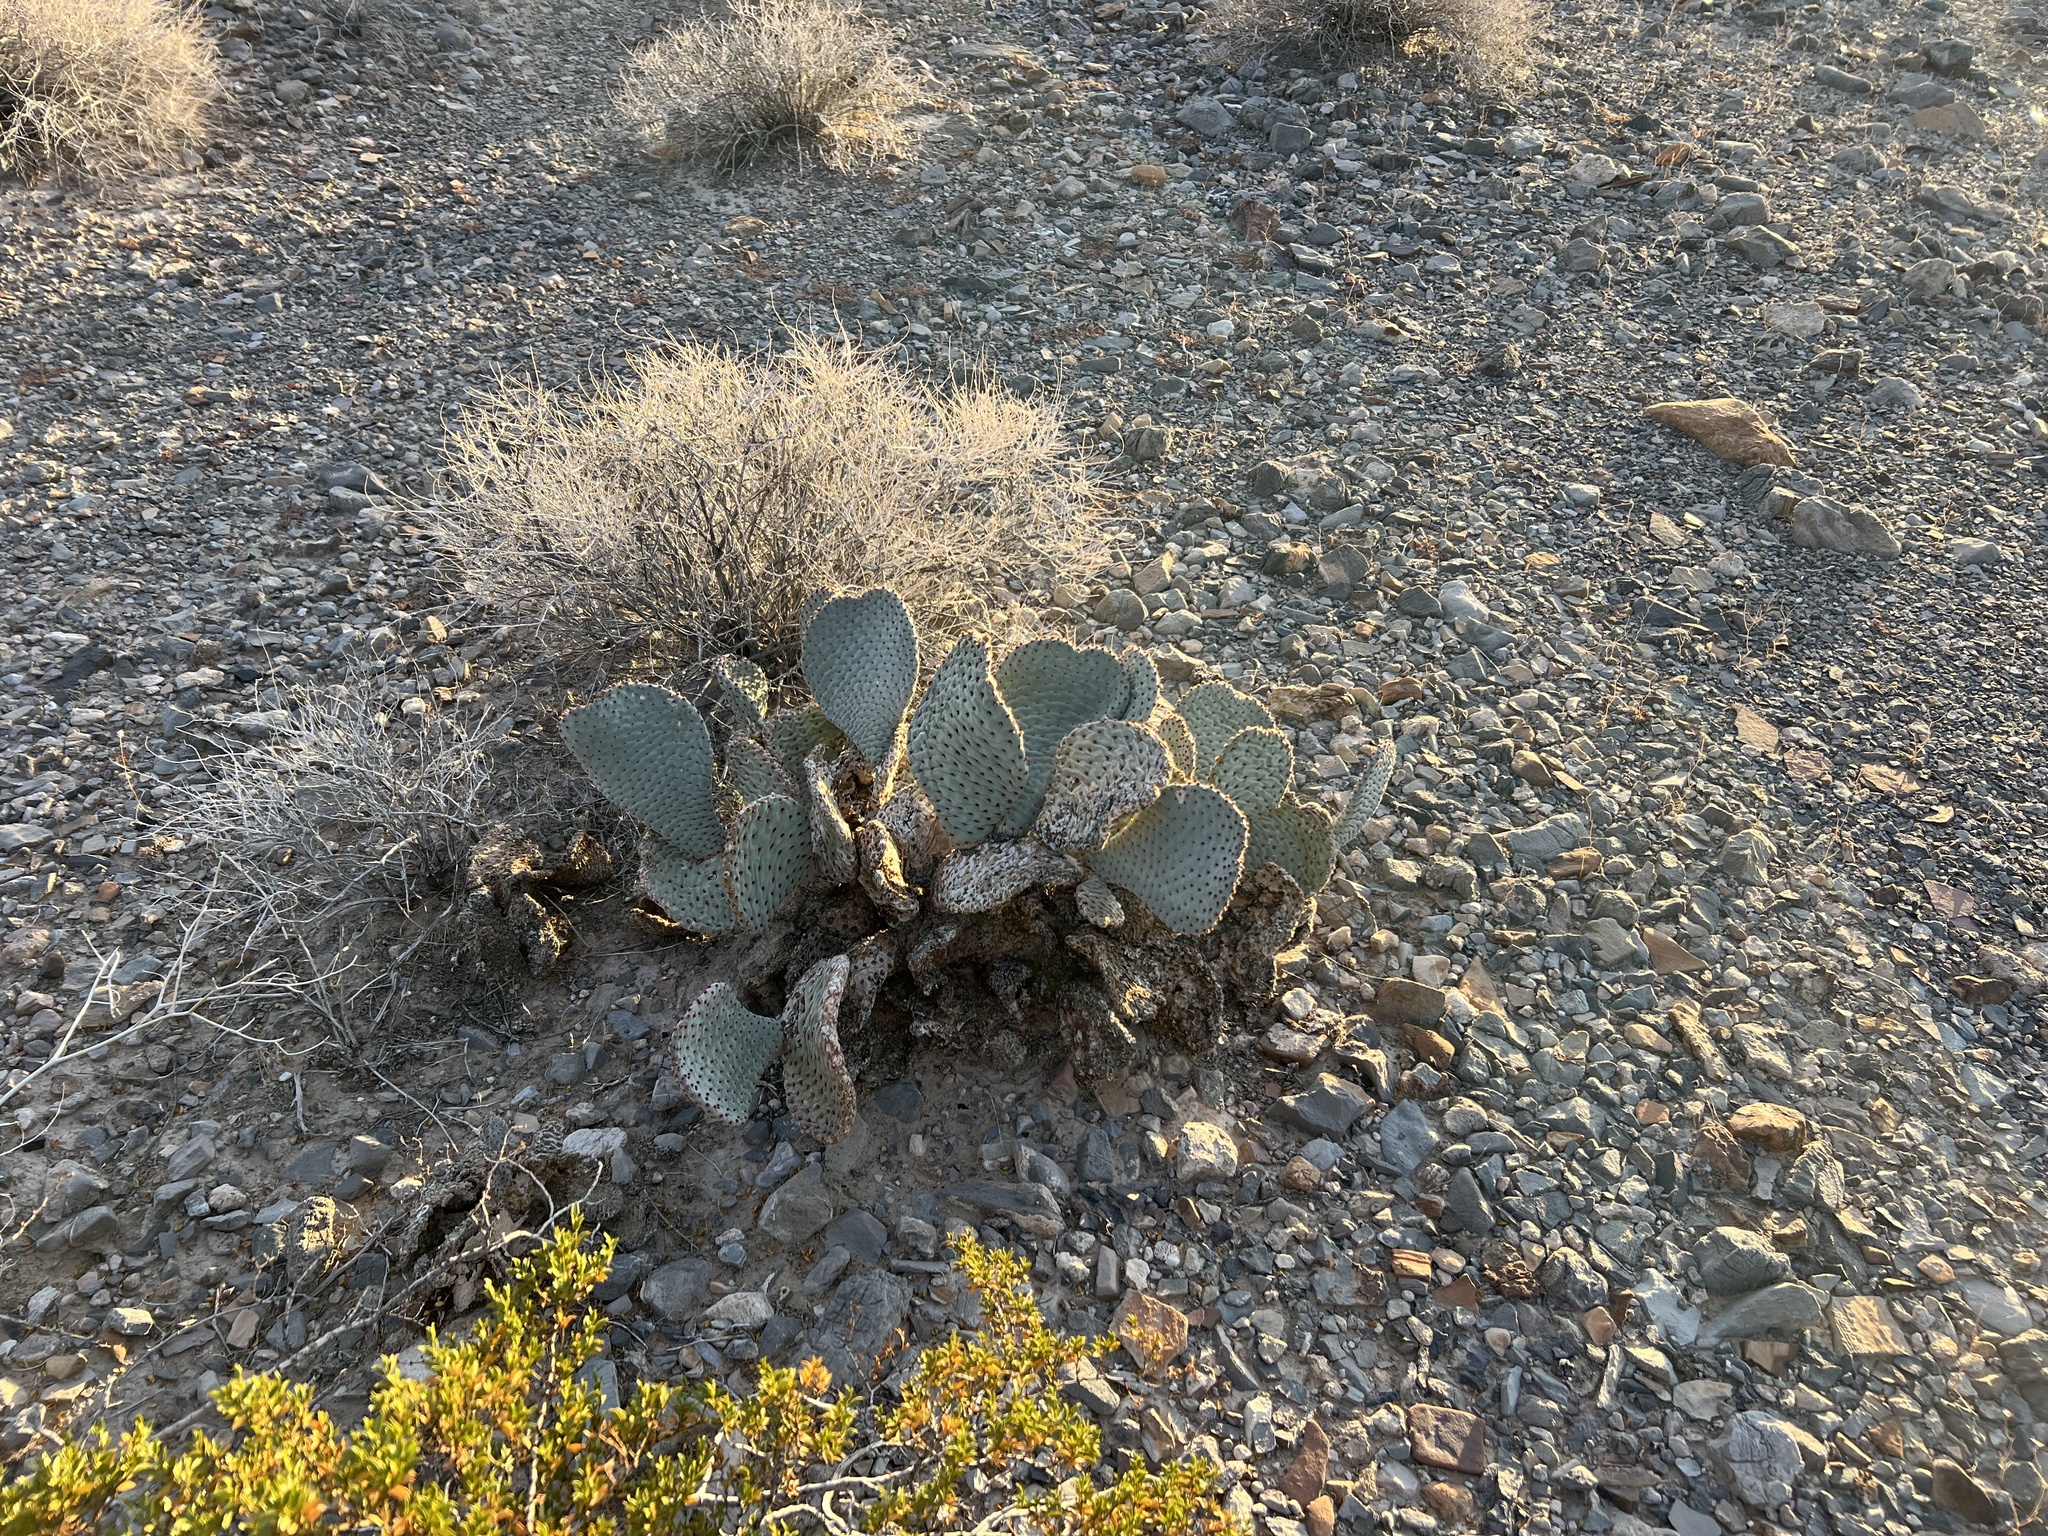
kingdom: Plantae
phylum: Tracheophyta
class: Magnoliopsida
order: Caryophyllales
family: Cactaceae
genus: Opuntia
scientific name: Opuntia basilaris
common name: Beavertail prickly-pear
